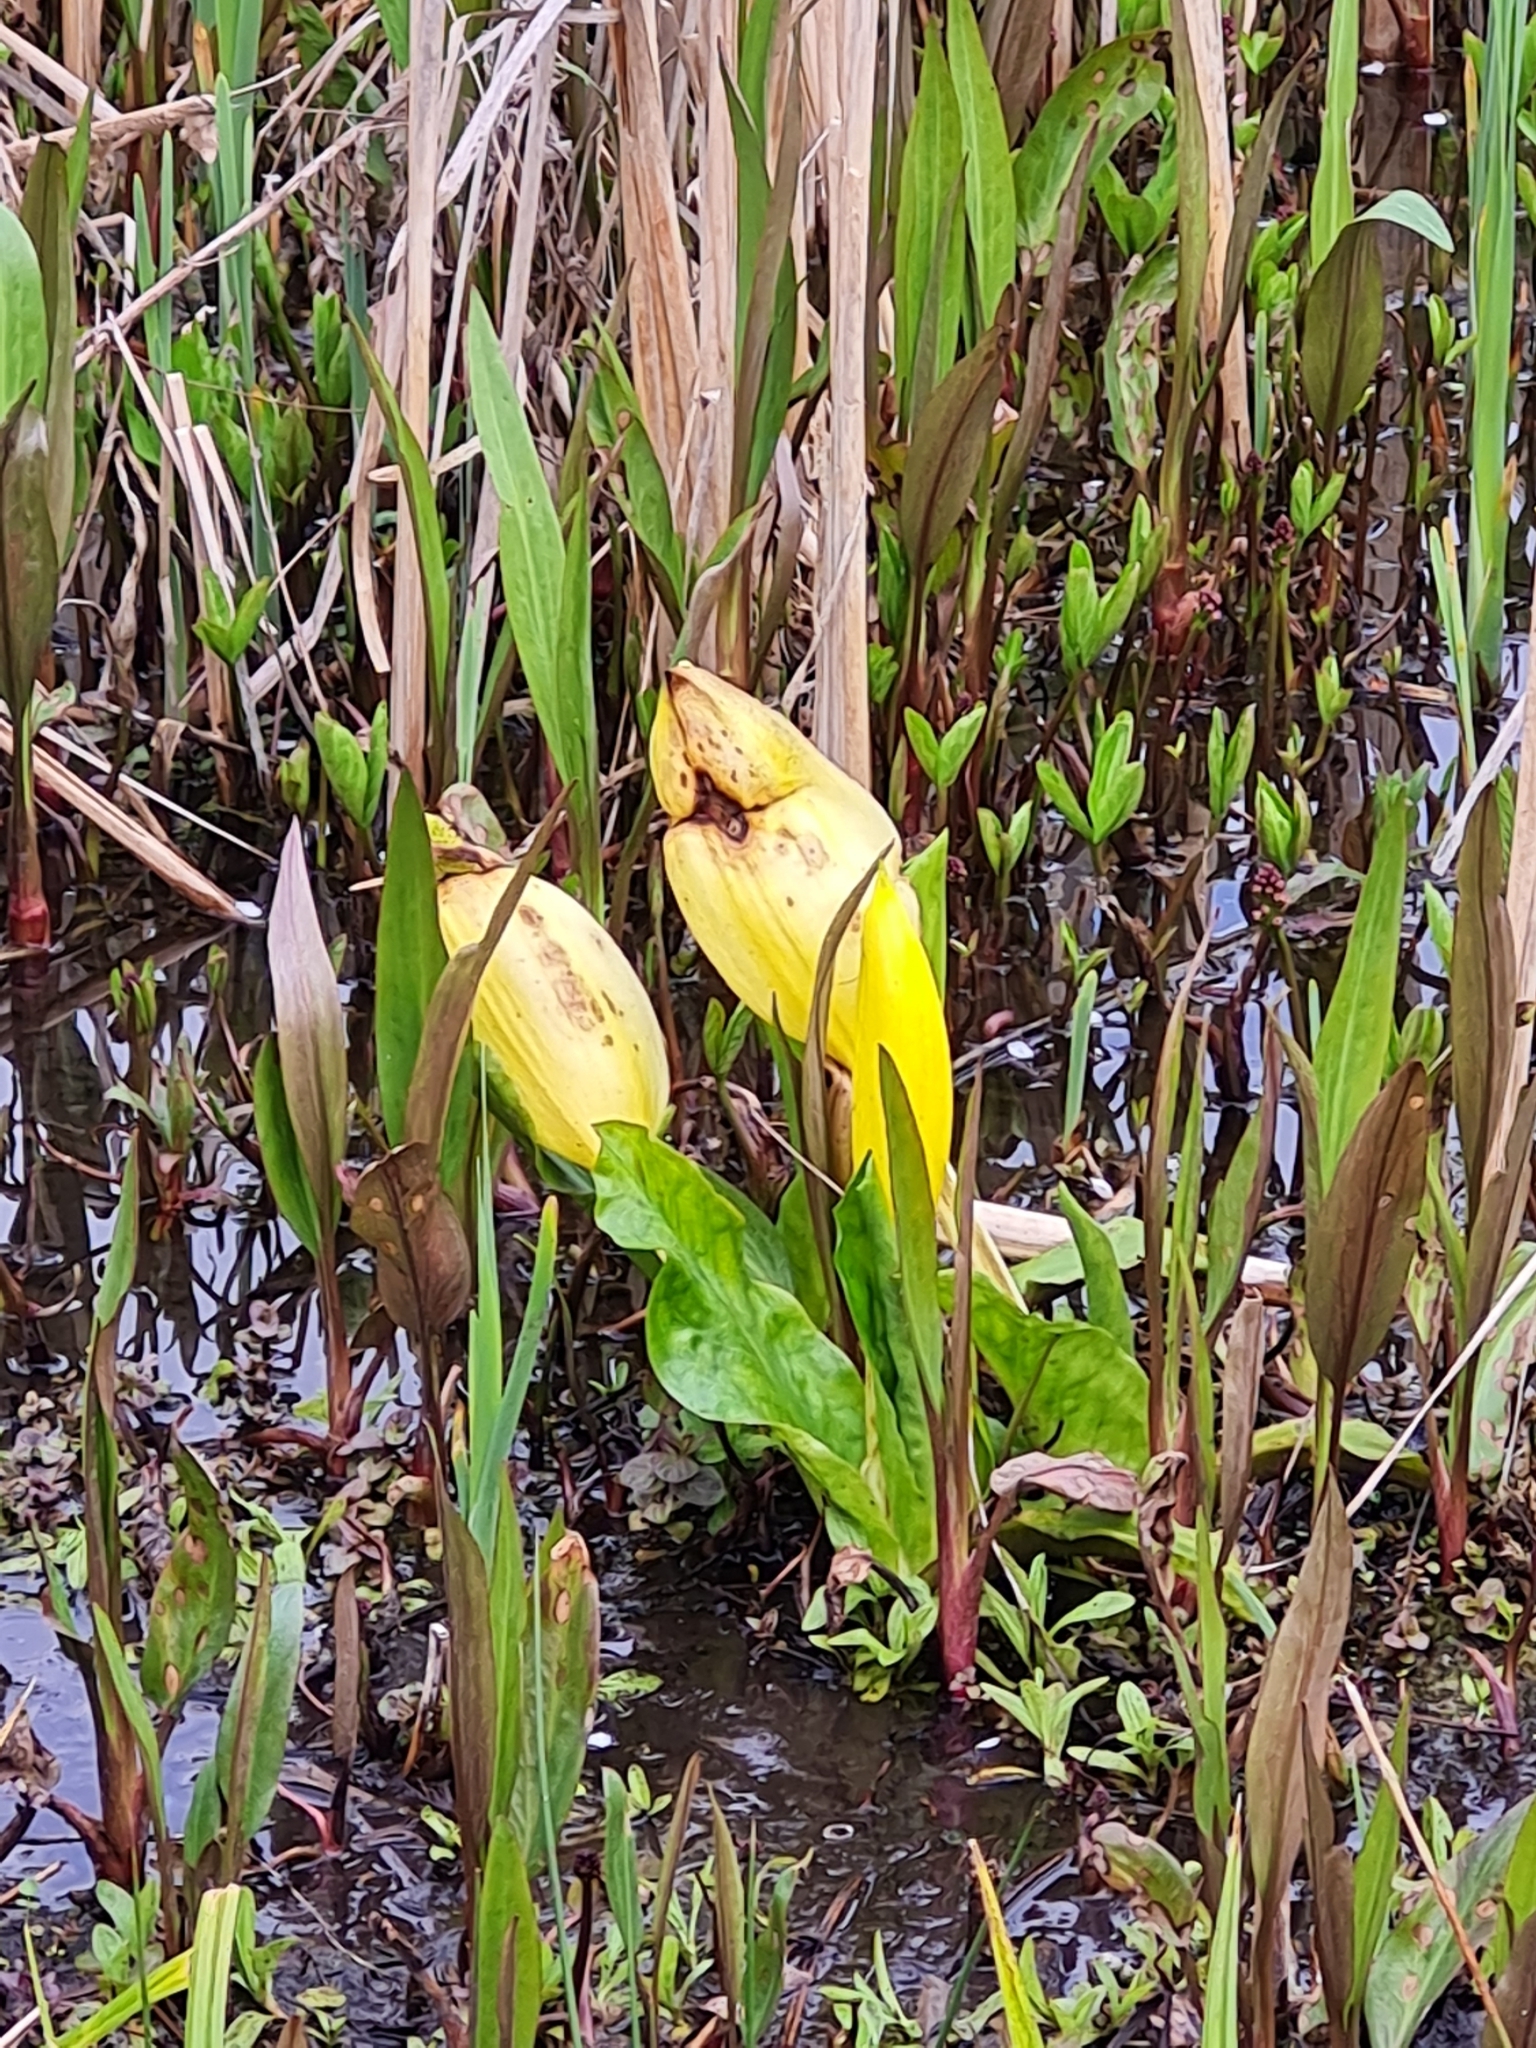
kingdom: Plantae
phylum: Tracheophyta
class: Liliopsida
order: Alismatales
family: Araceae
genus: Lysichiton
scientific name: Lysichiton americanus
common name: American skunk cabbage
